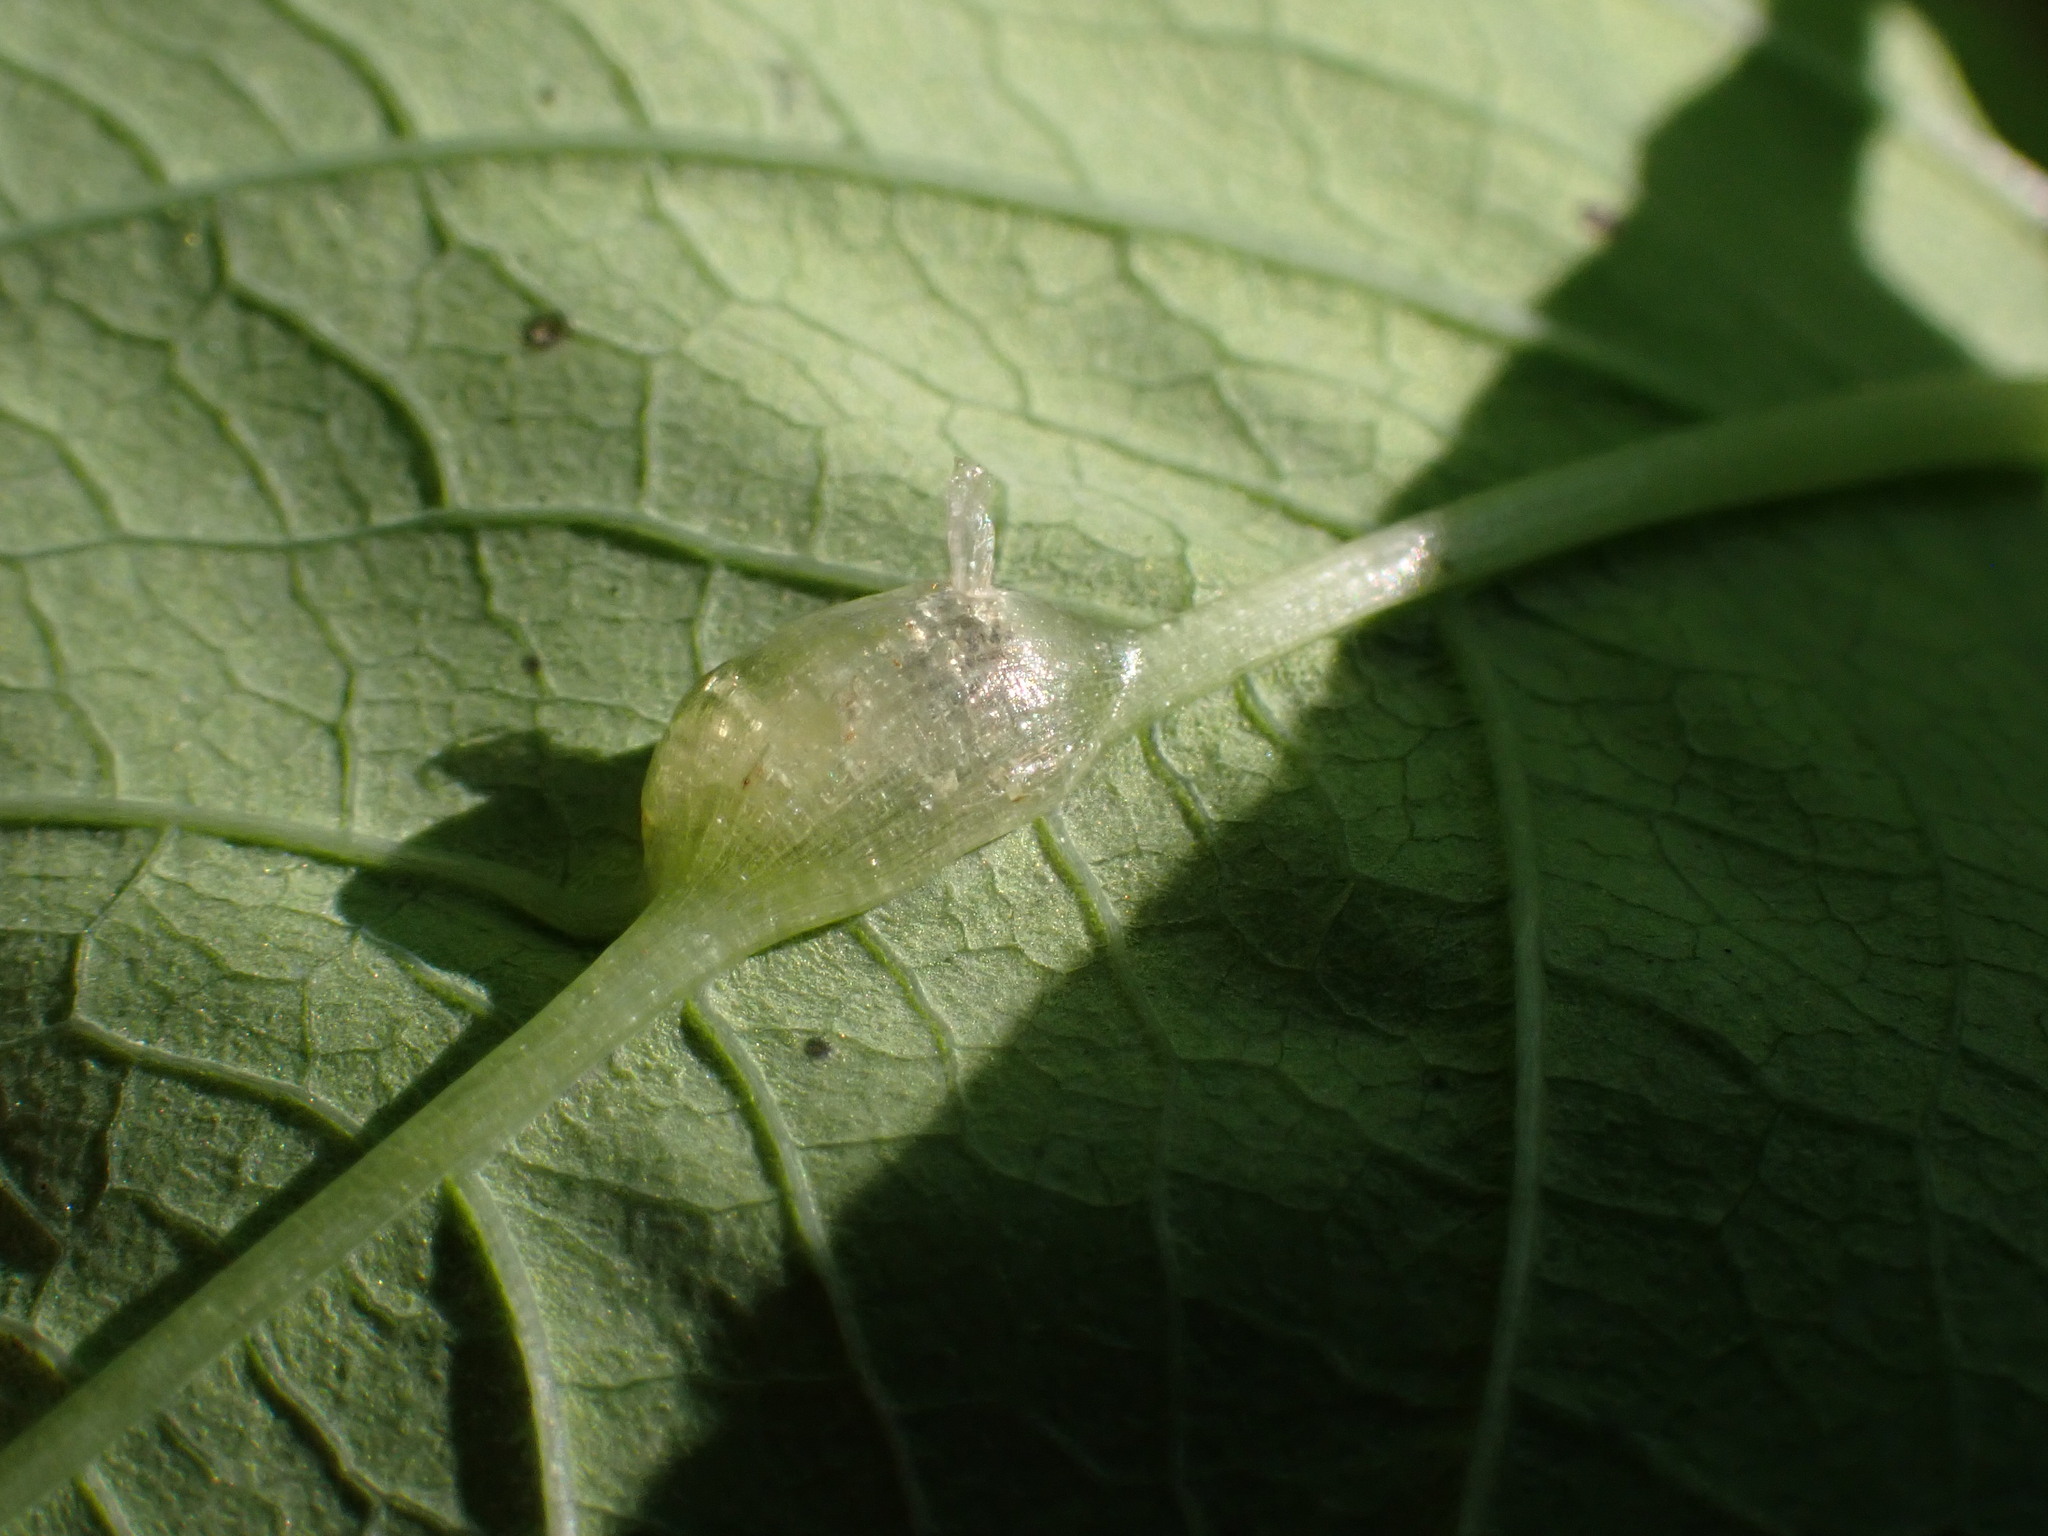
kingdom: Animalia
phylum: Arthropoda
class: Insecta
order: Diptera
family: Cecidomyiidae
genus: Neolasioptera
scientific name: Neolasioptera impatientifolia
